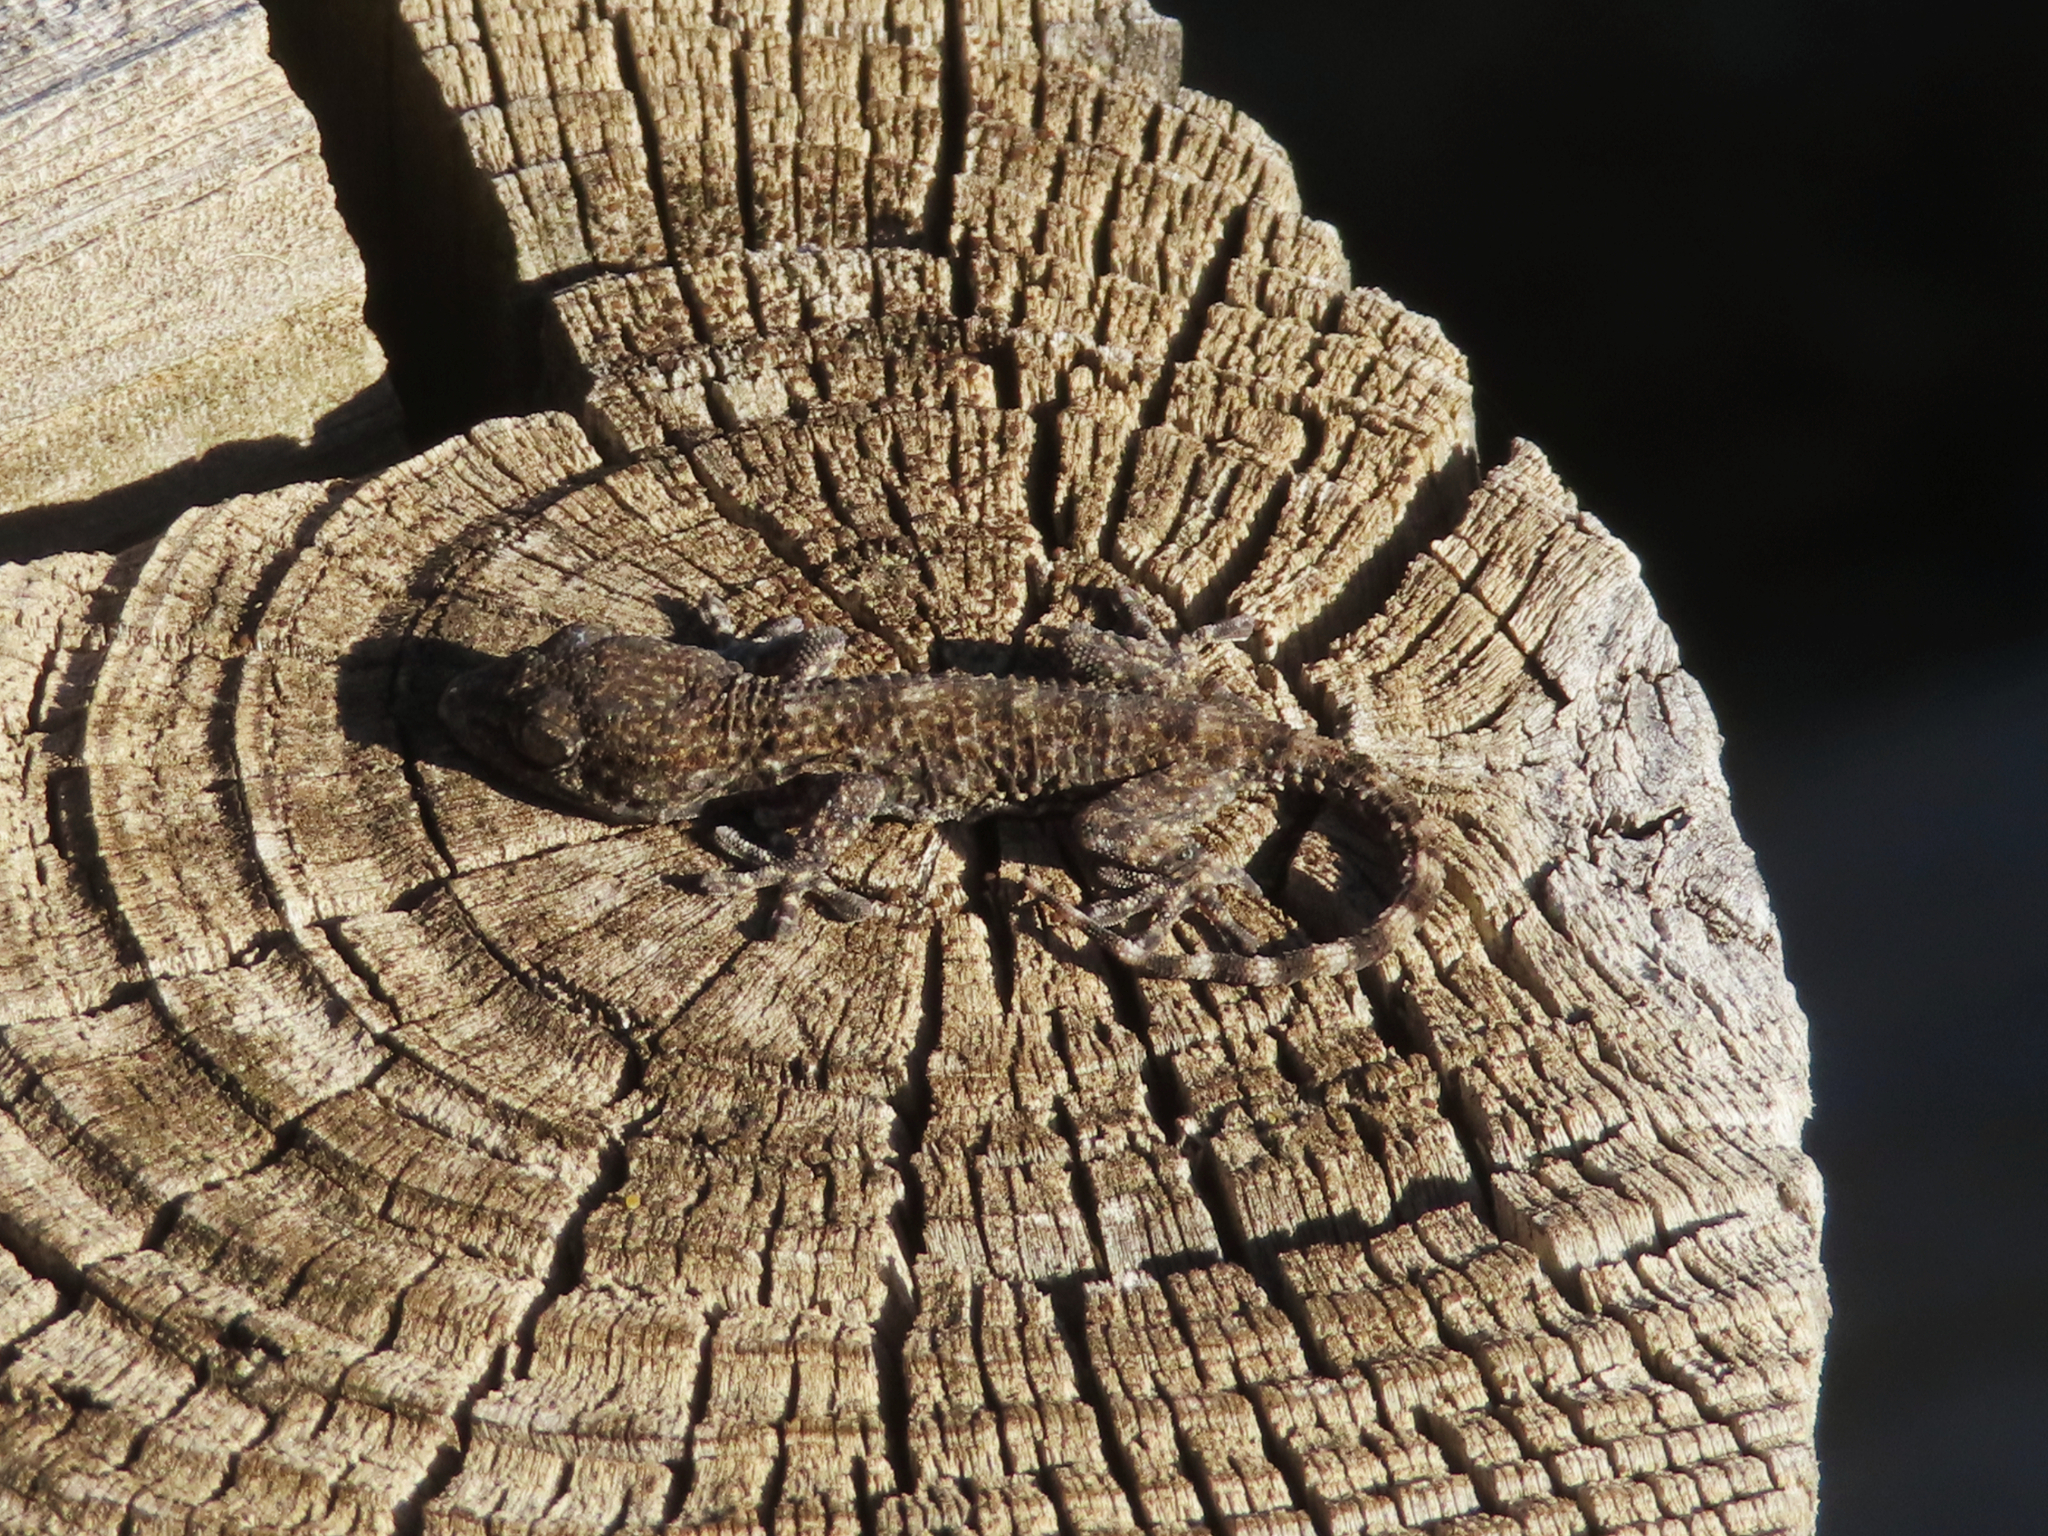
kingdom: Animalia
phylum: Chordata
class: Squamata
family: Phyllodactylidae
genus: Tarentola
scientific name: Tarentola mauritanica
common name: Moorish gecko
